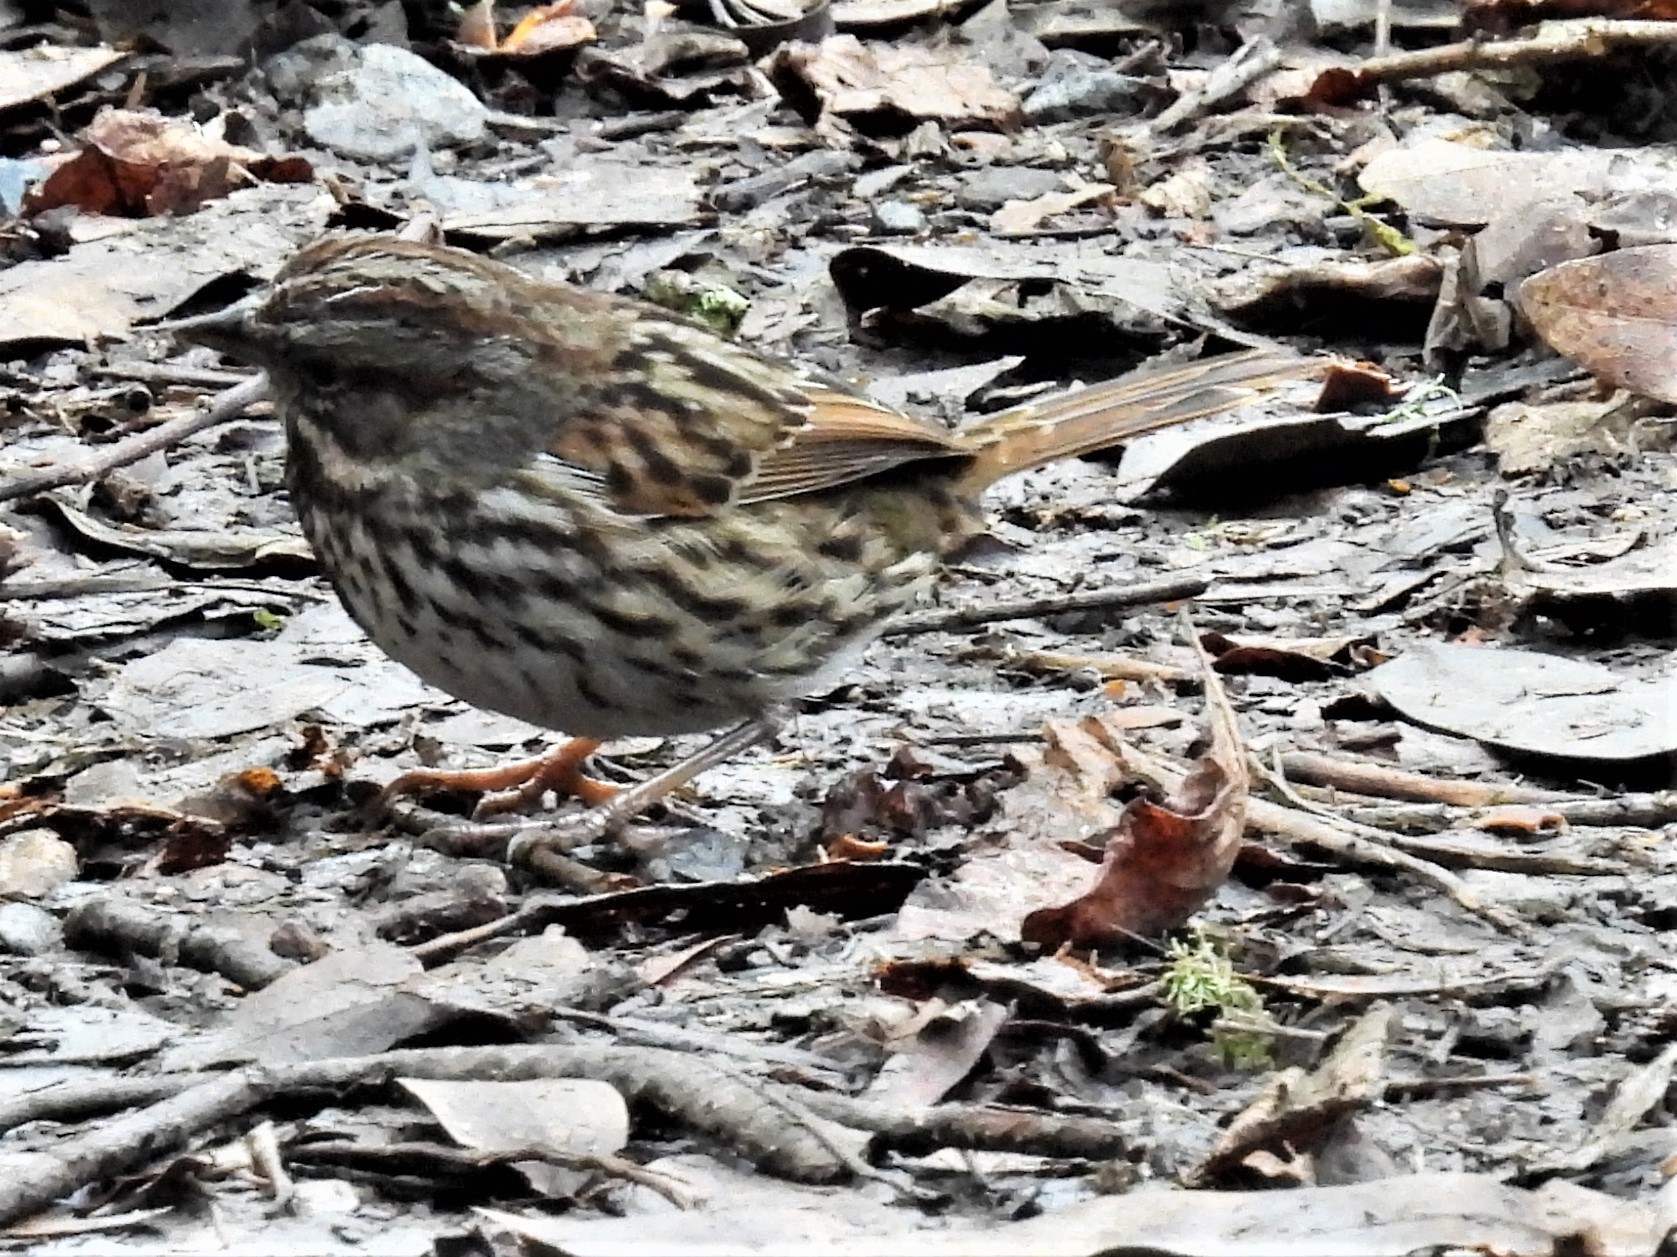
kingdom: Animalia
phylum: Chordata
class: Aves
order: Passeriformes
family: Passerellidae
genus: Melospiza
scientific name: Melospiza melodia
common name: Song sparrow
